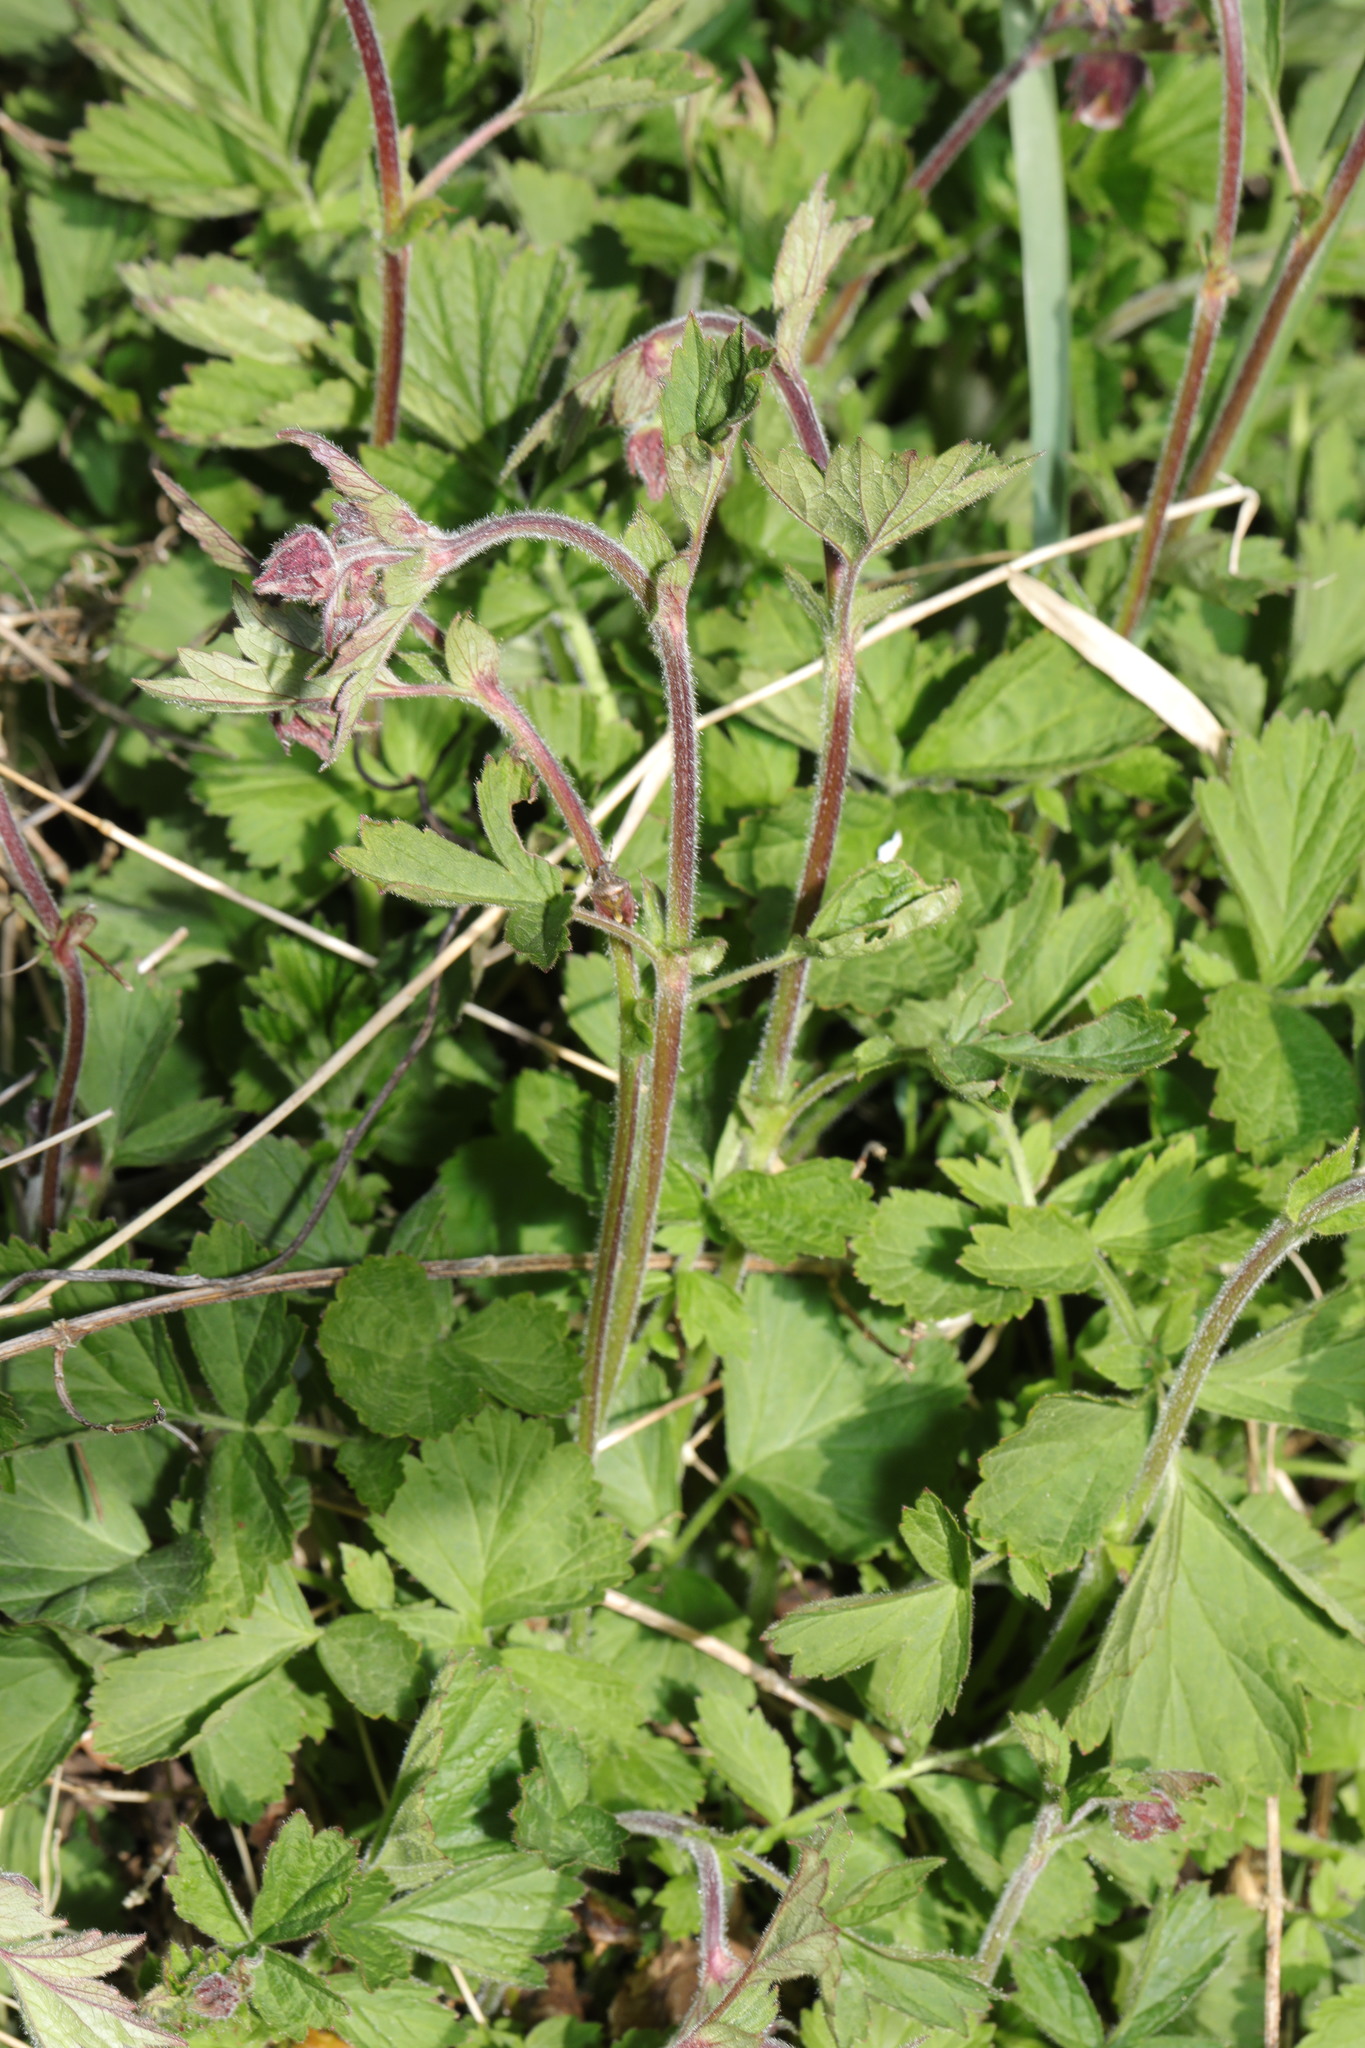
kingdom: Plantae
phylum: Tracheophyta
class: Magnoliopsida
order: Rosales
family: Rosaceae
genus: Geum
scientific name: Geum rivale
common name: Water avens
